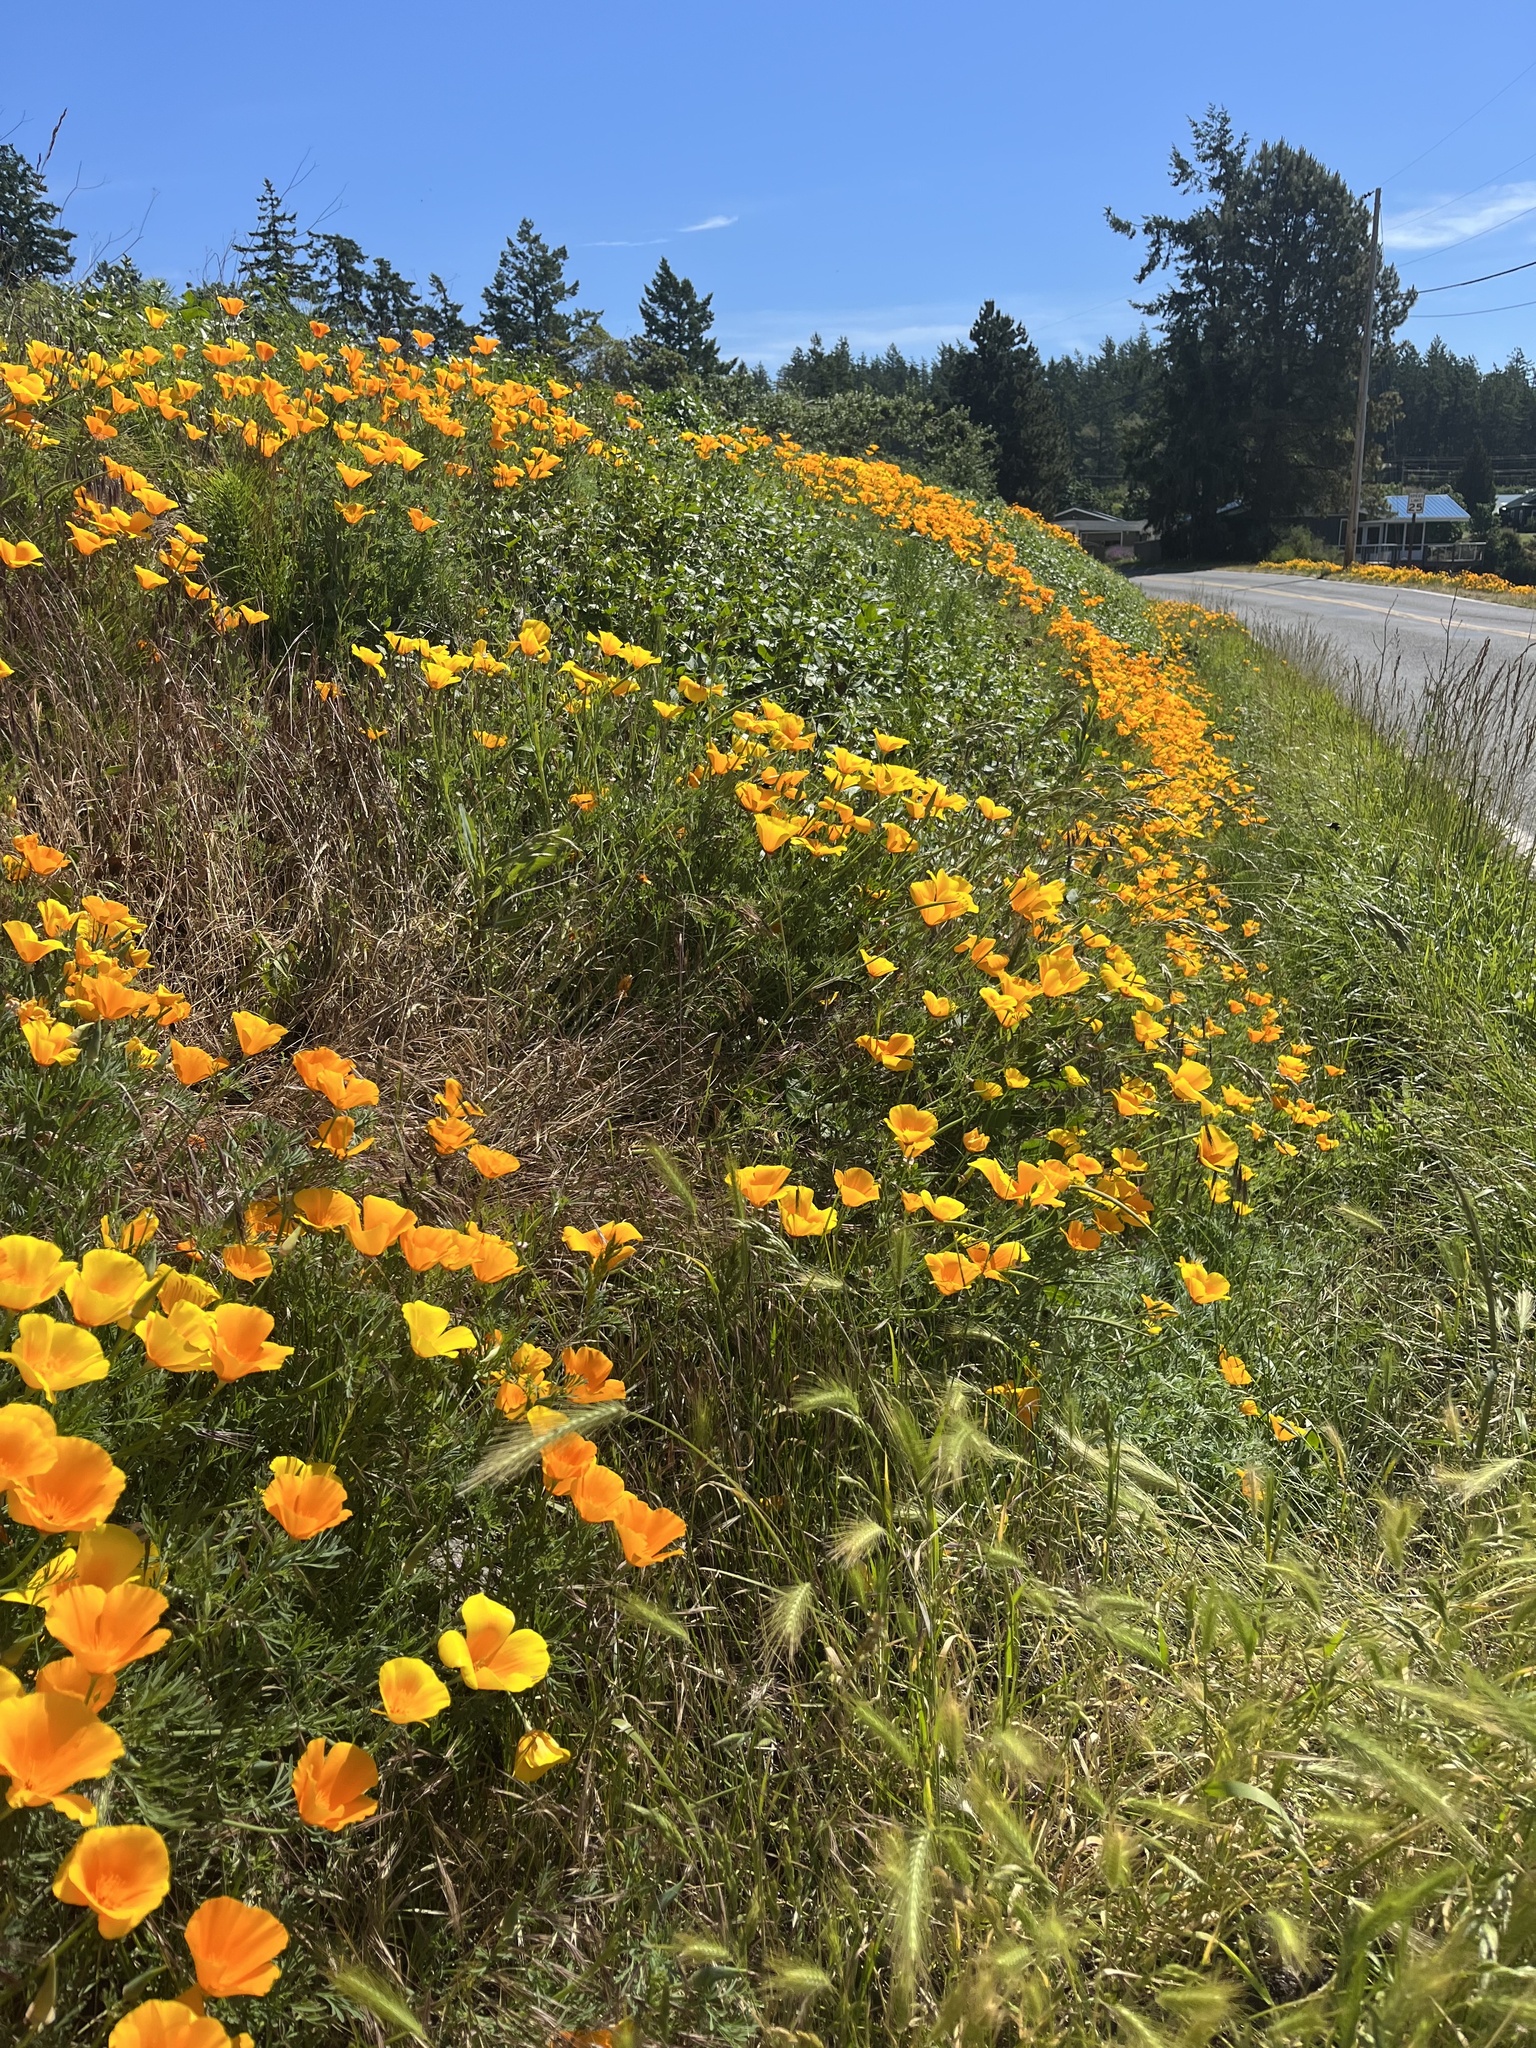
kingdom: Plantae
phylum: Tracheophyta
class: Magnoliopsida
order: Ranunculales
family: Papaveraceae
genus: Eschscholzia
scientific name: Eschscholzia californica
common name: California poppy
